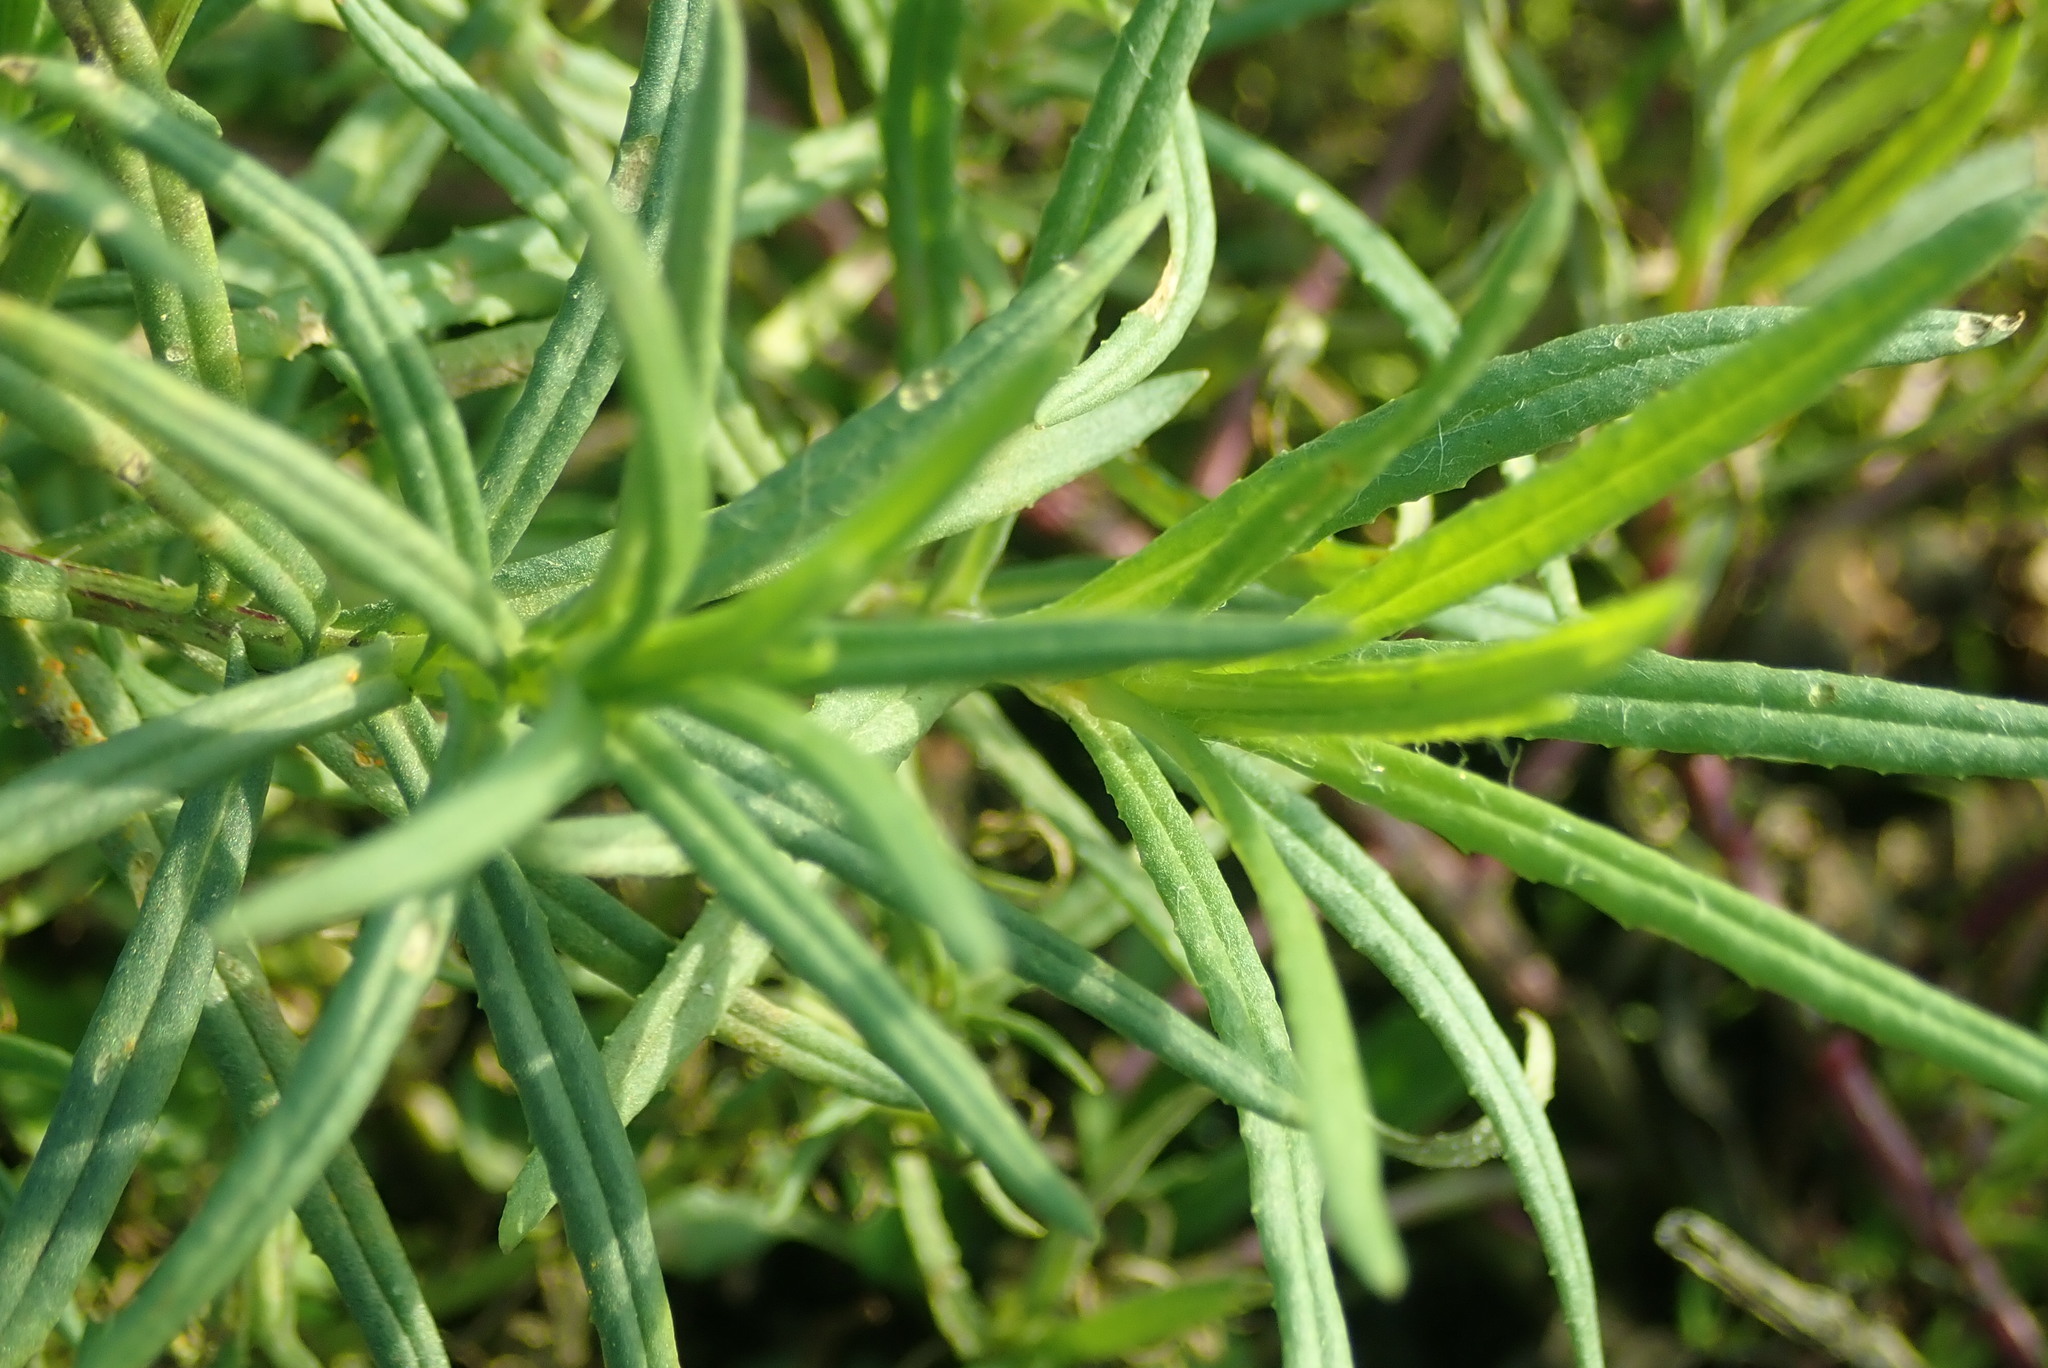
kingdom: Plantae
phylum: Tracheophyta
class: Magnoliopsida
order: Asterales
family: Asteraceae
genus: Senecio
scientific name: Senecio inaequidens
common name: Narrow-leaved ragwort
